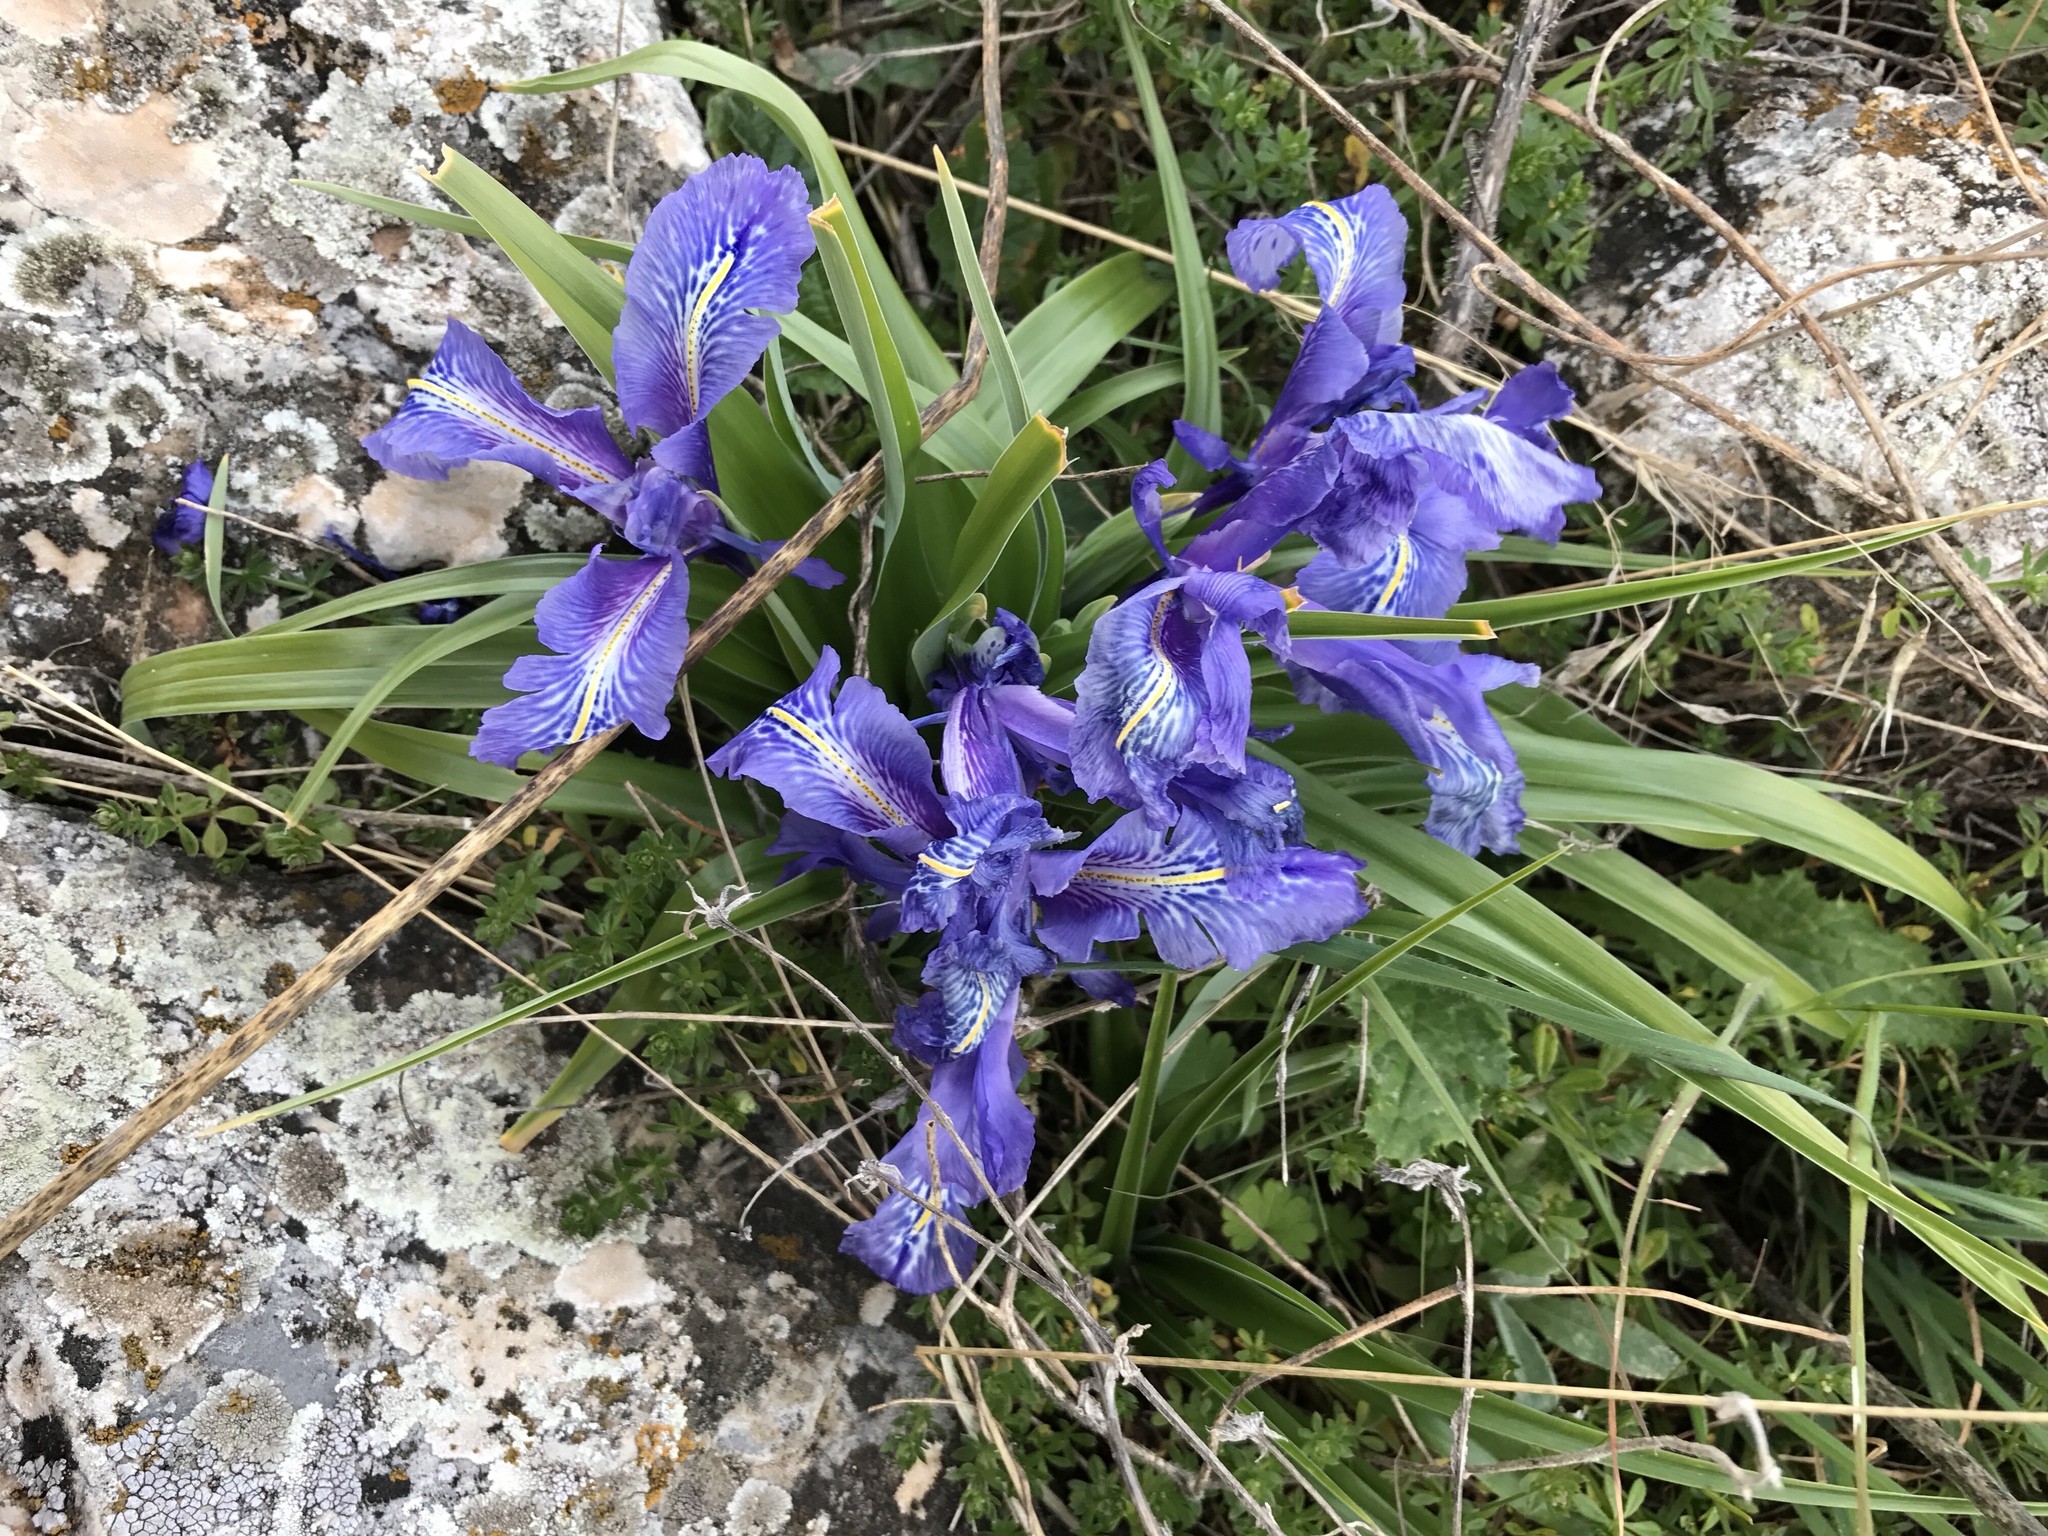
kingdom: Plantae
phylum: Tracheophyta
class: Liliopsida
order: Asparagales
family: Iridaceae
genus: Iris
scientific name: Iris planifolia
